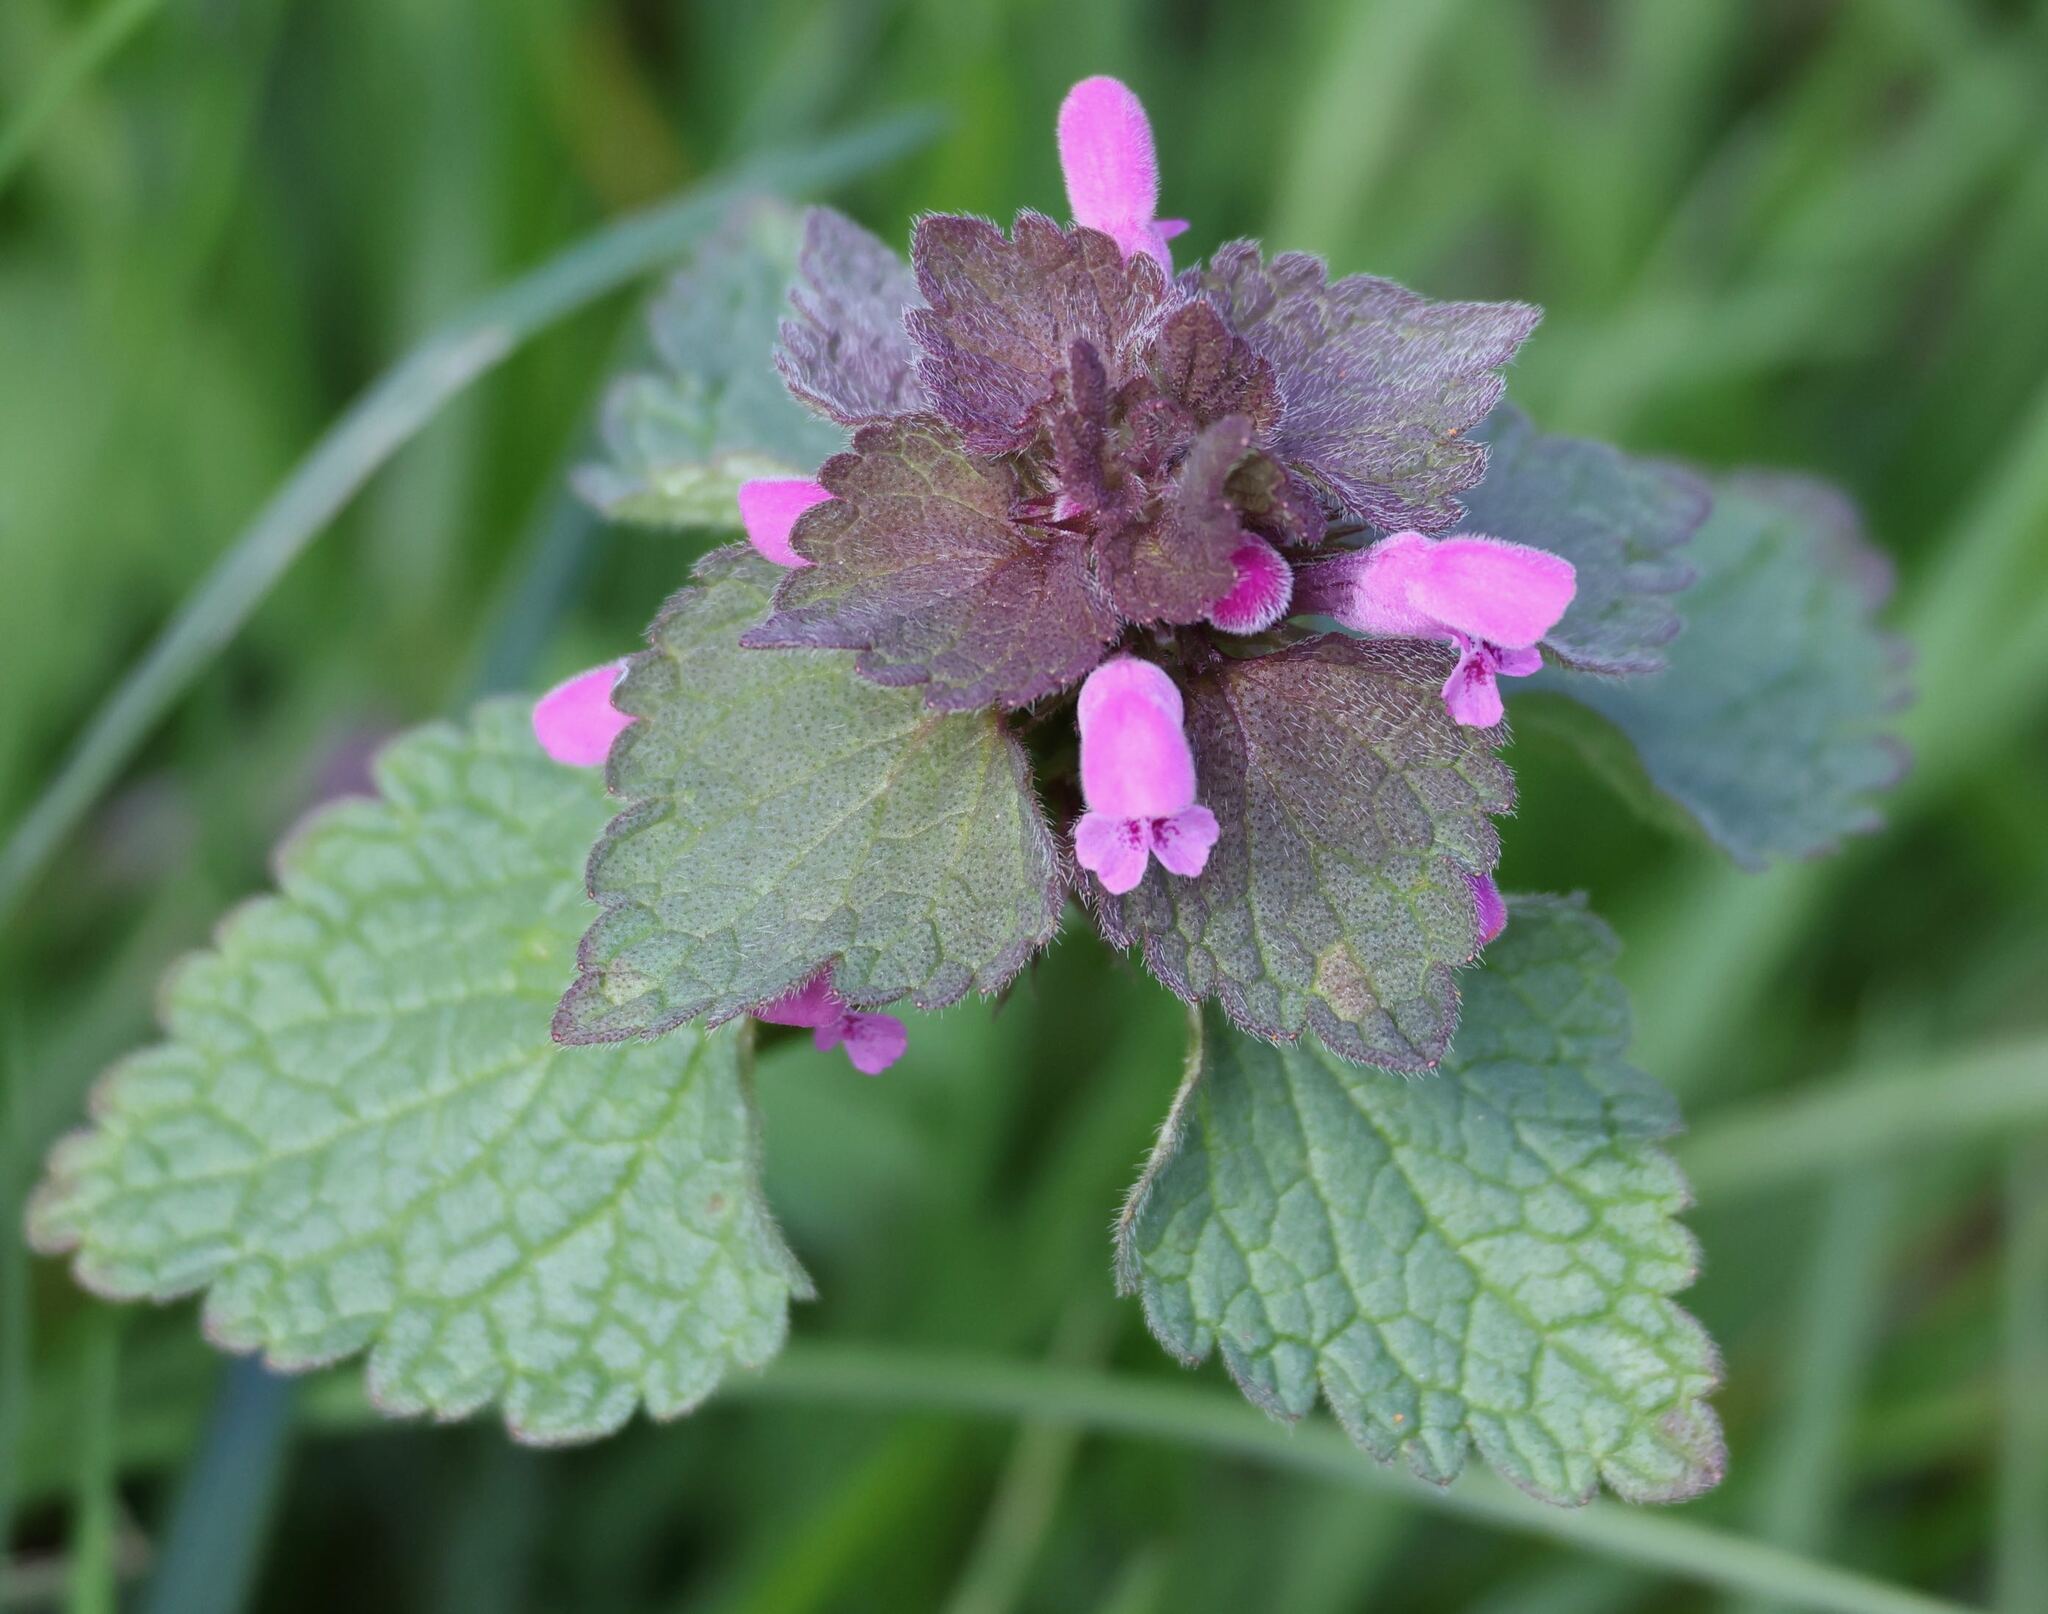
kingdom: Plantae
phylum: Tracheophyta
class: Magnoliopsida
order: Lamiales
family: Lamiaceae
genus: Lamium
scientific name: Lamium purpureum
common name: Red dead-nettle
